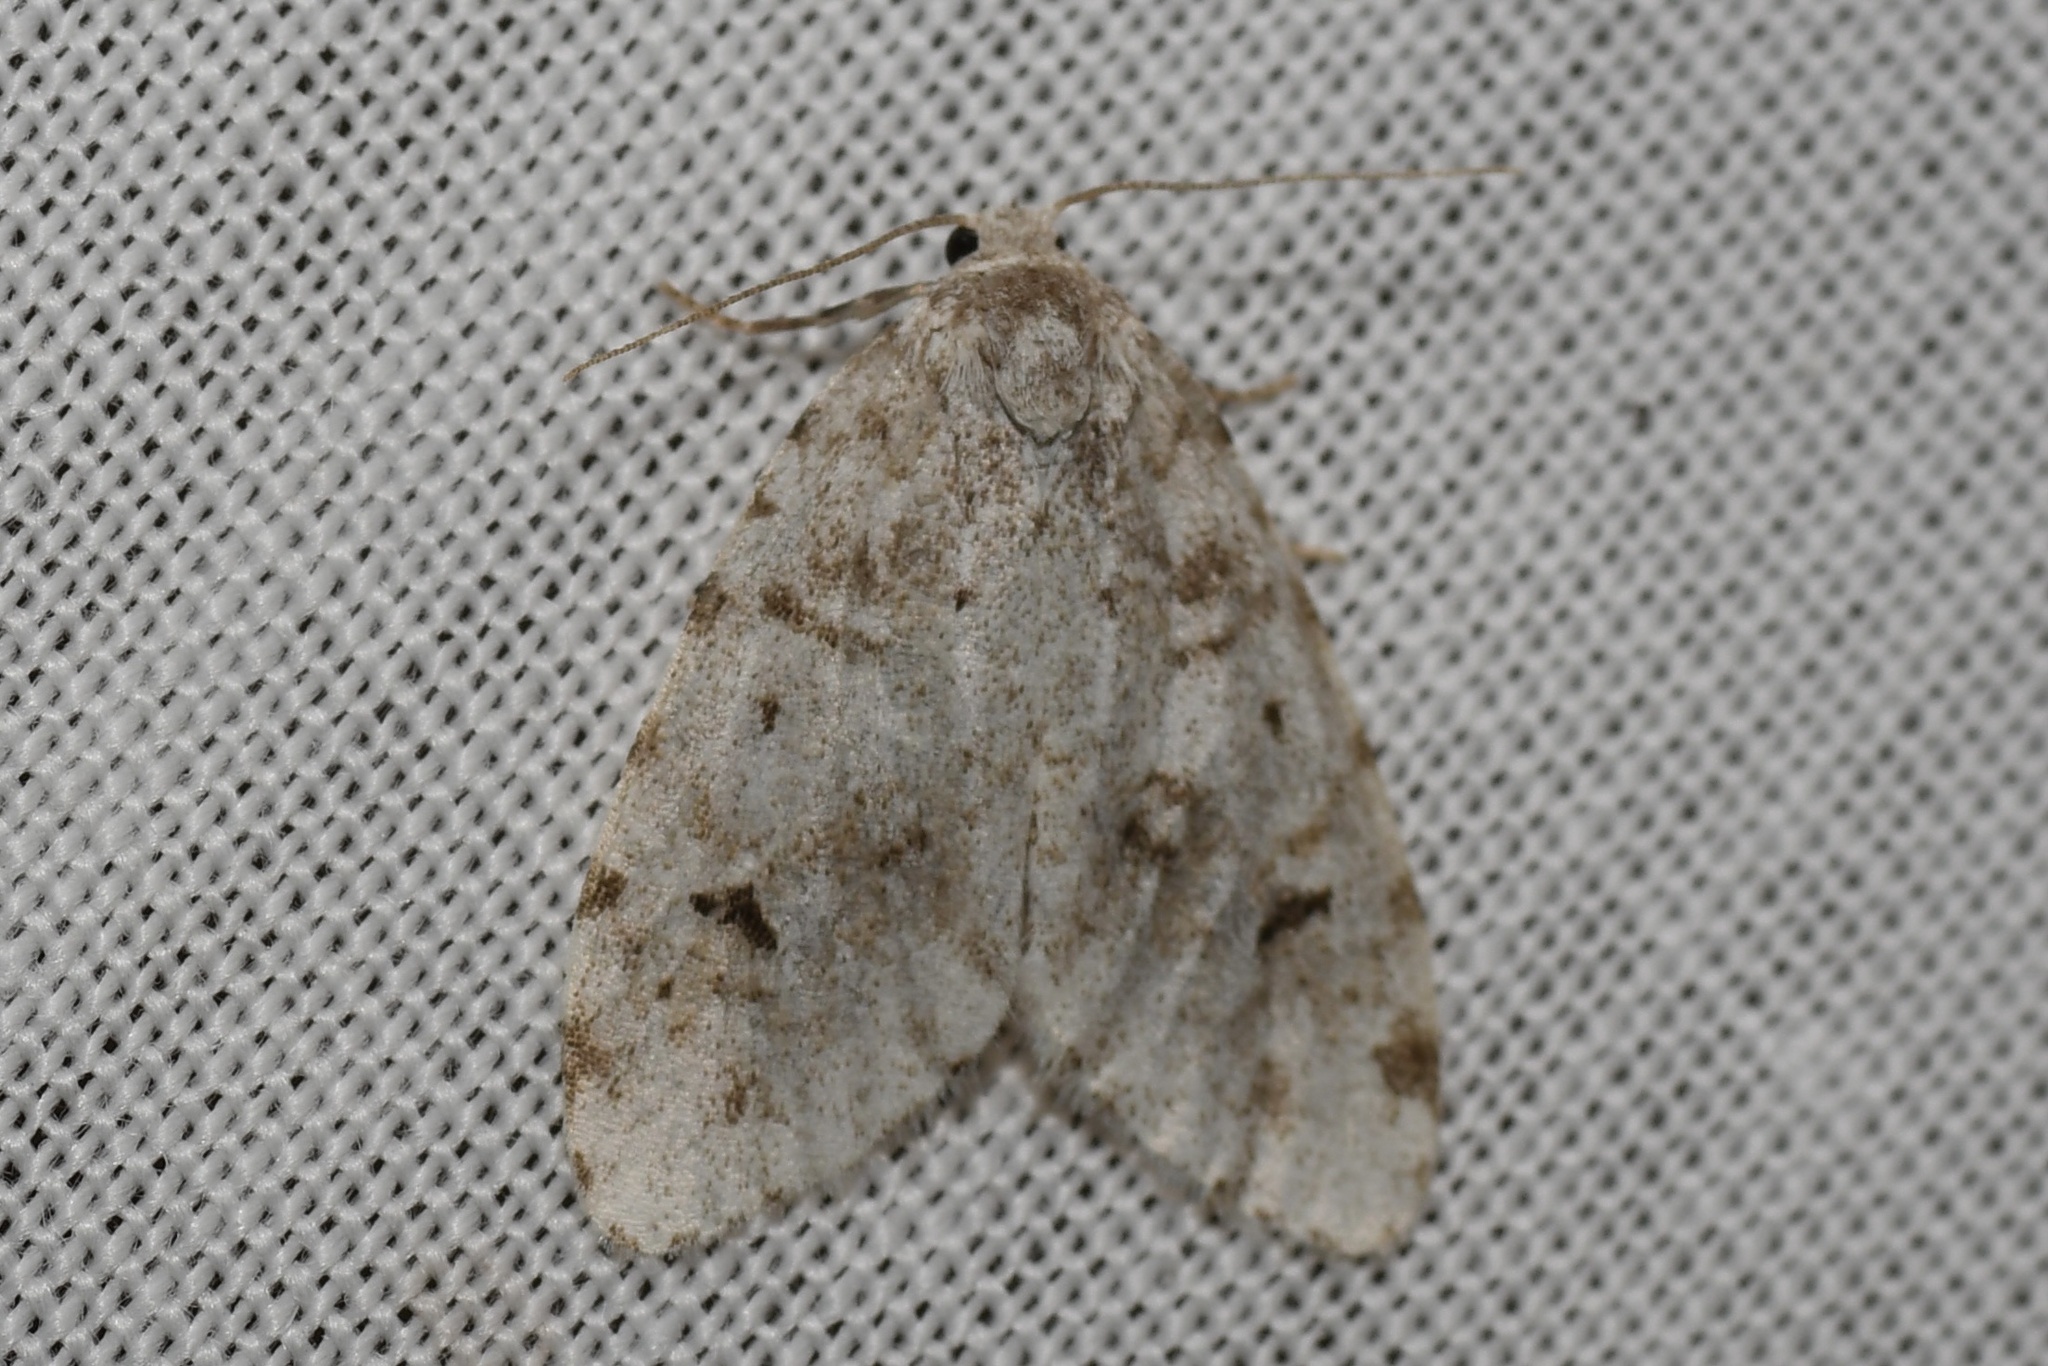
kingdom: Animalia
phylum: Arthropoda
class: Insecta
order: Lepidoptera
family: Erebidae
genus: Clemensia
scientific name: Clemensia umbrata
